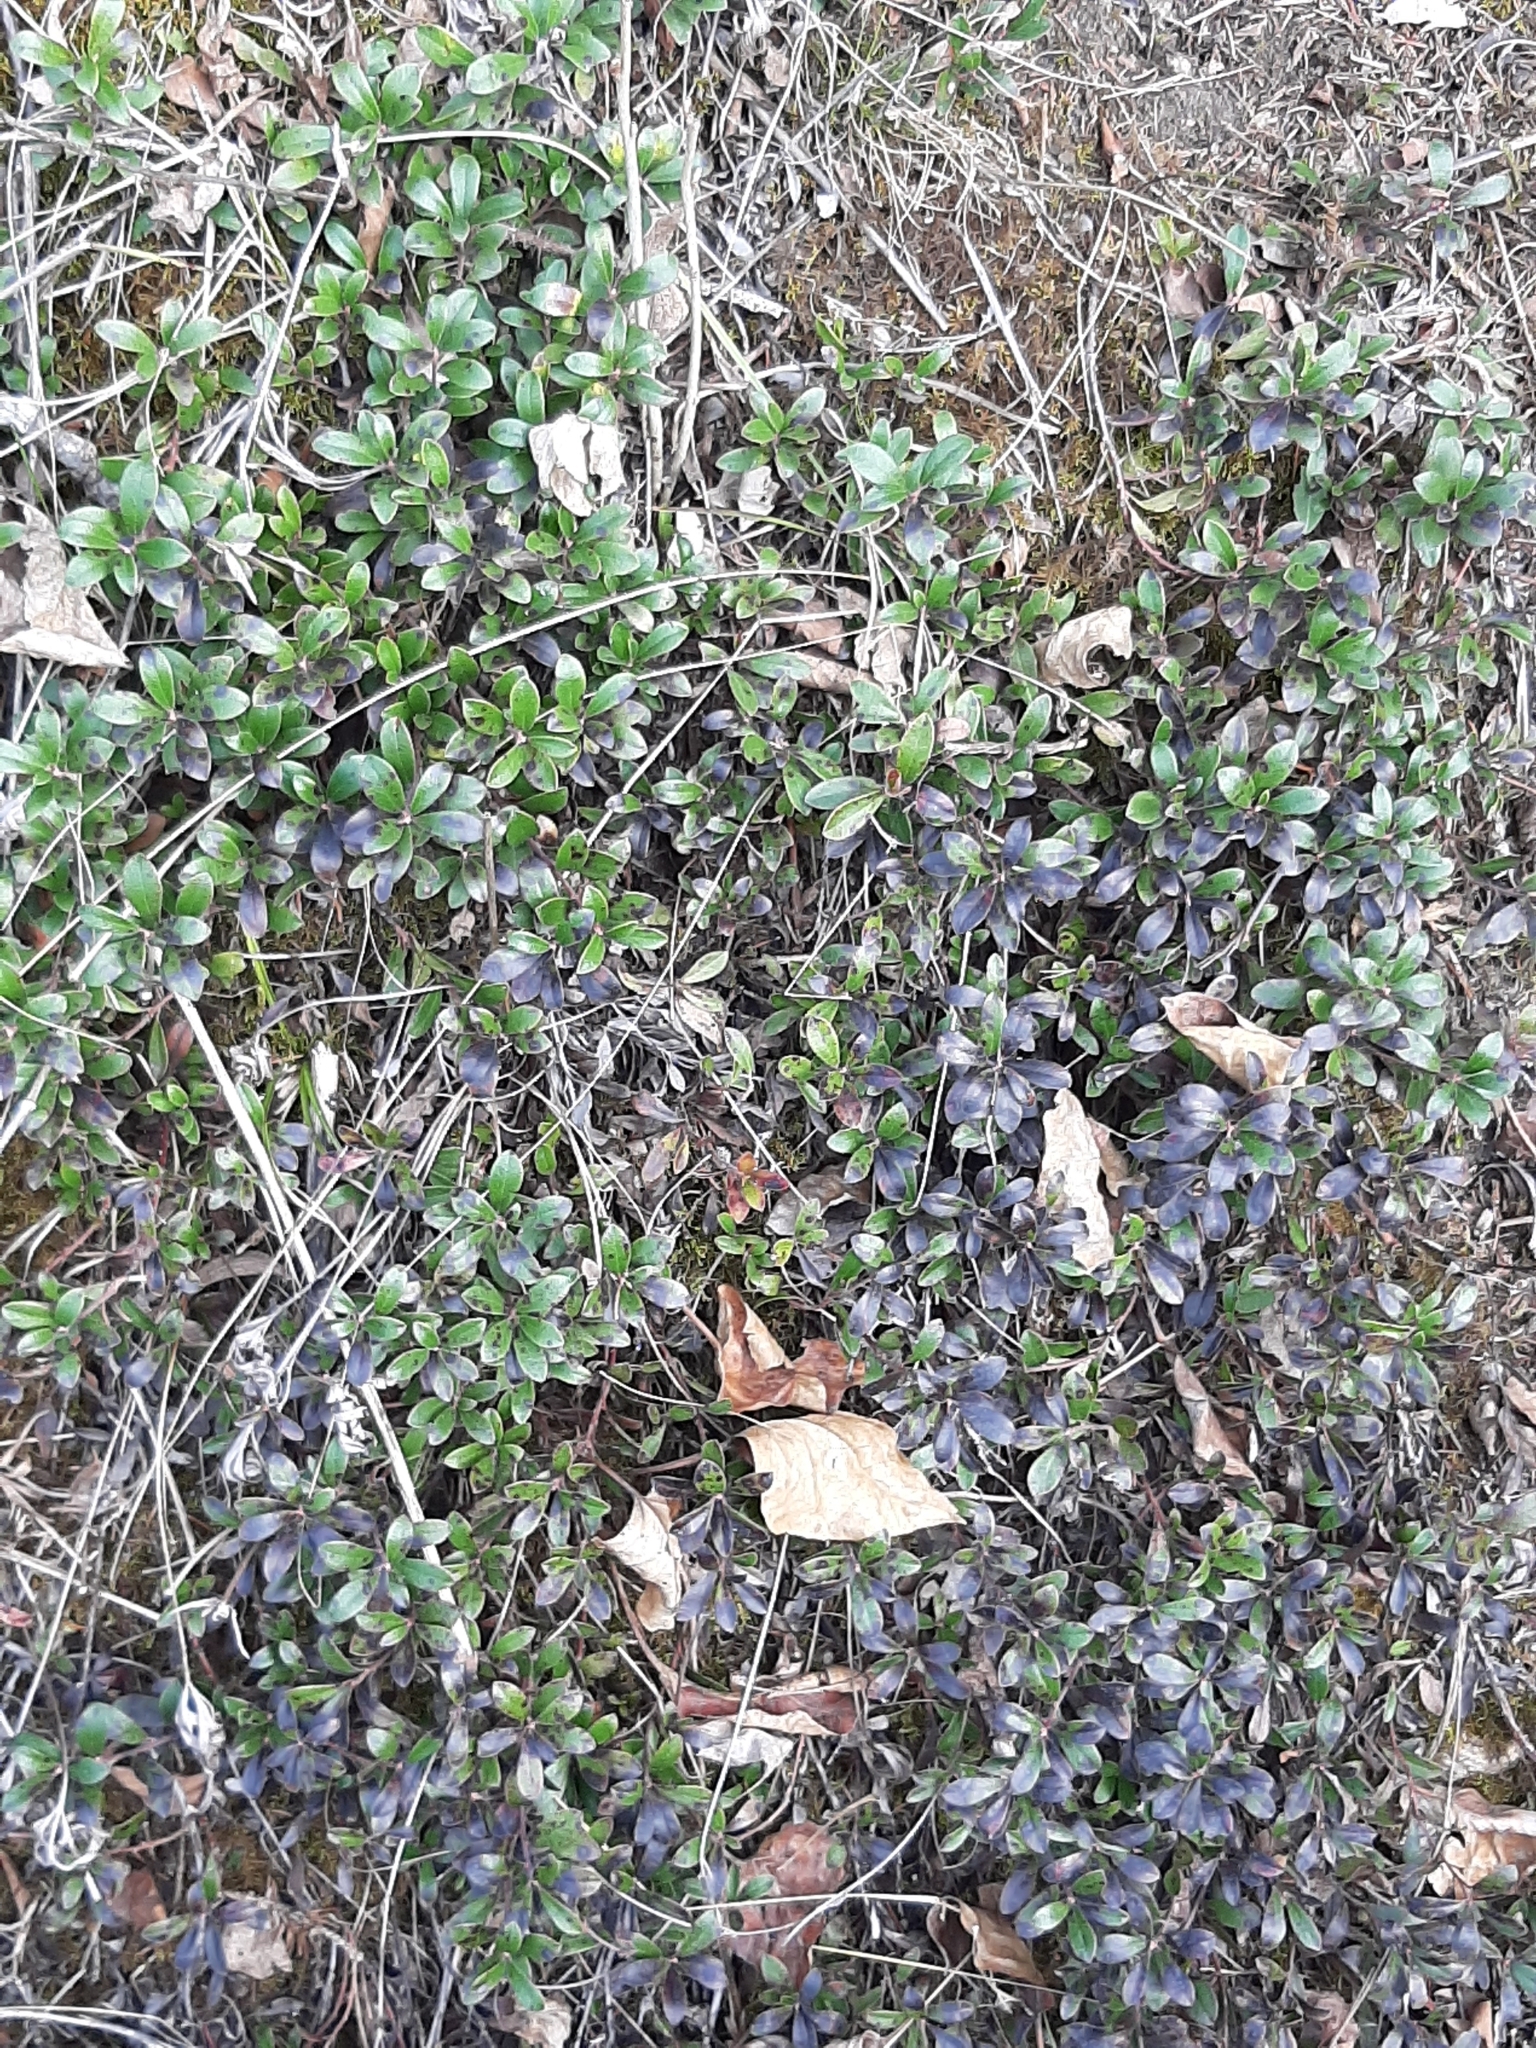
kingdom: Plantae
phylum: Tracheophyta
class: Magnoliopsida
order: Ericales
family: Ericaceae
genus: Arctostaphylos
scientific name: Arctostaphylos uva-ursi
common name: Bearberry
